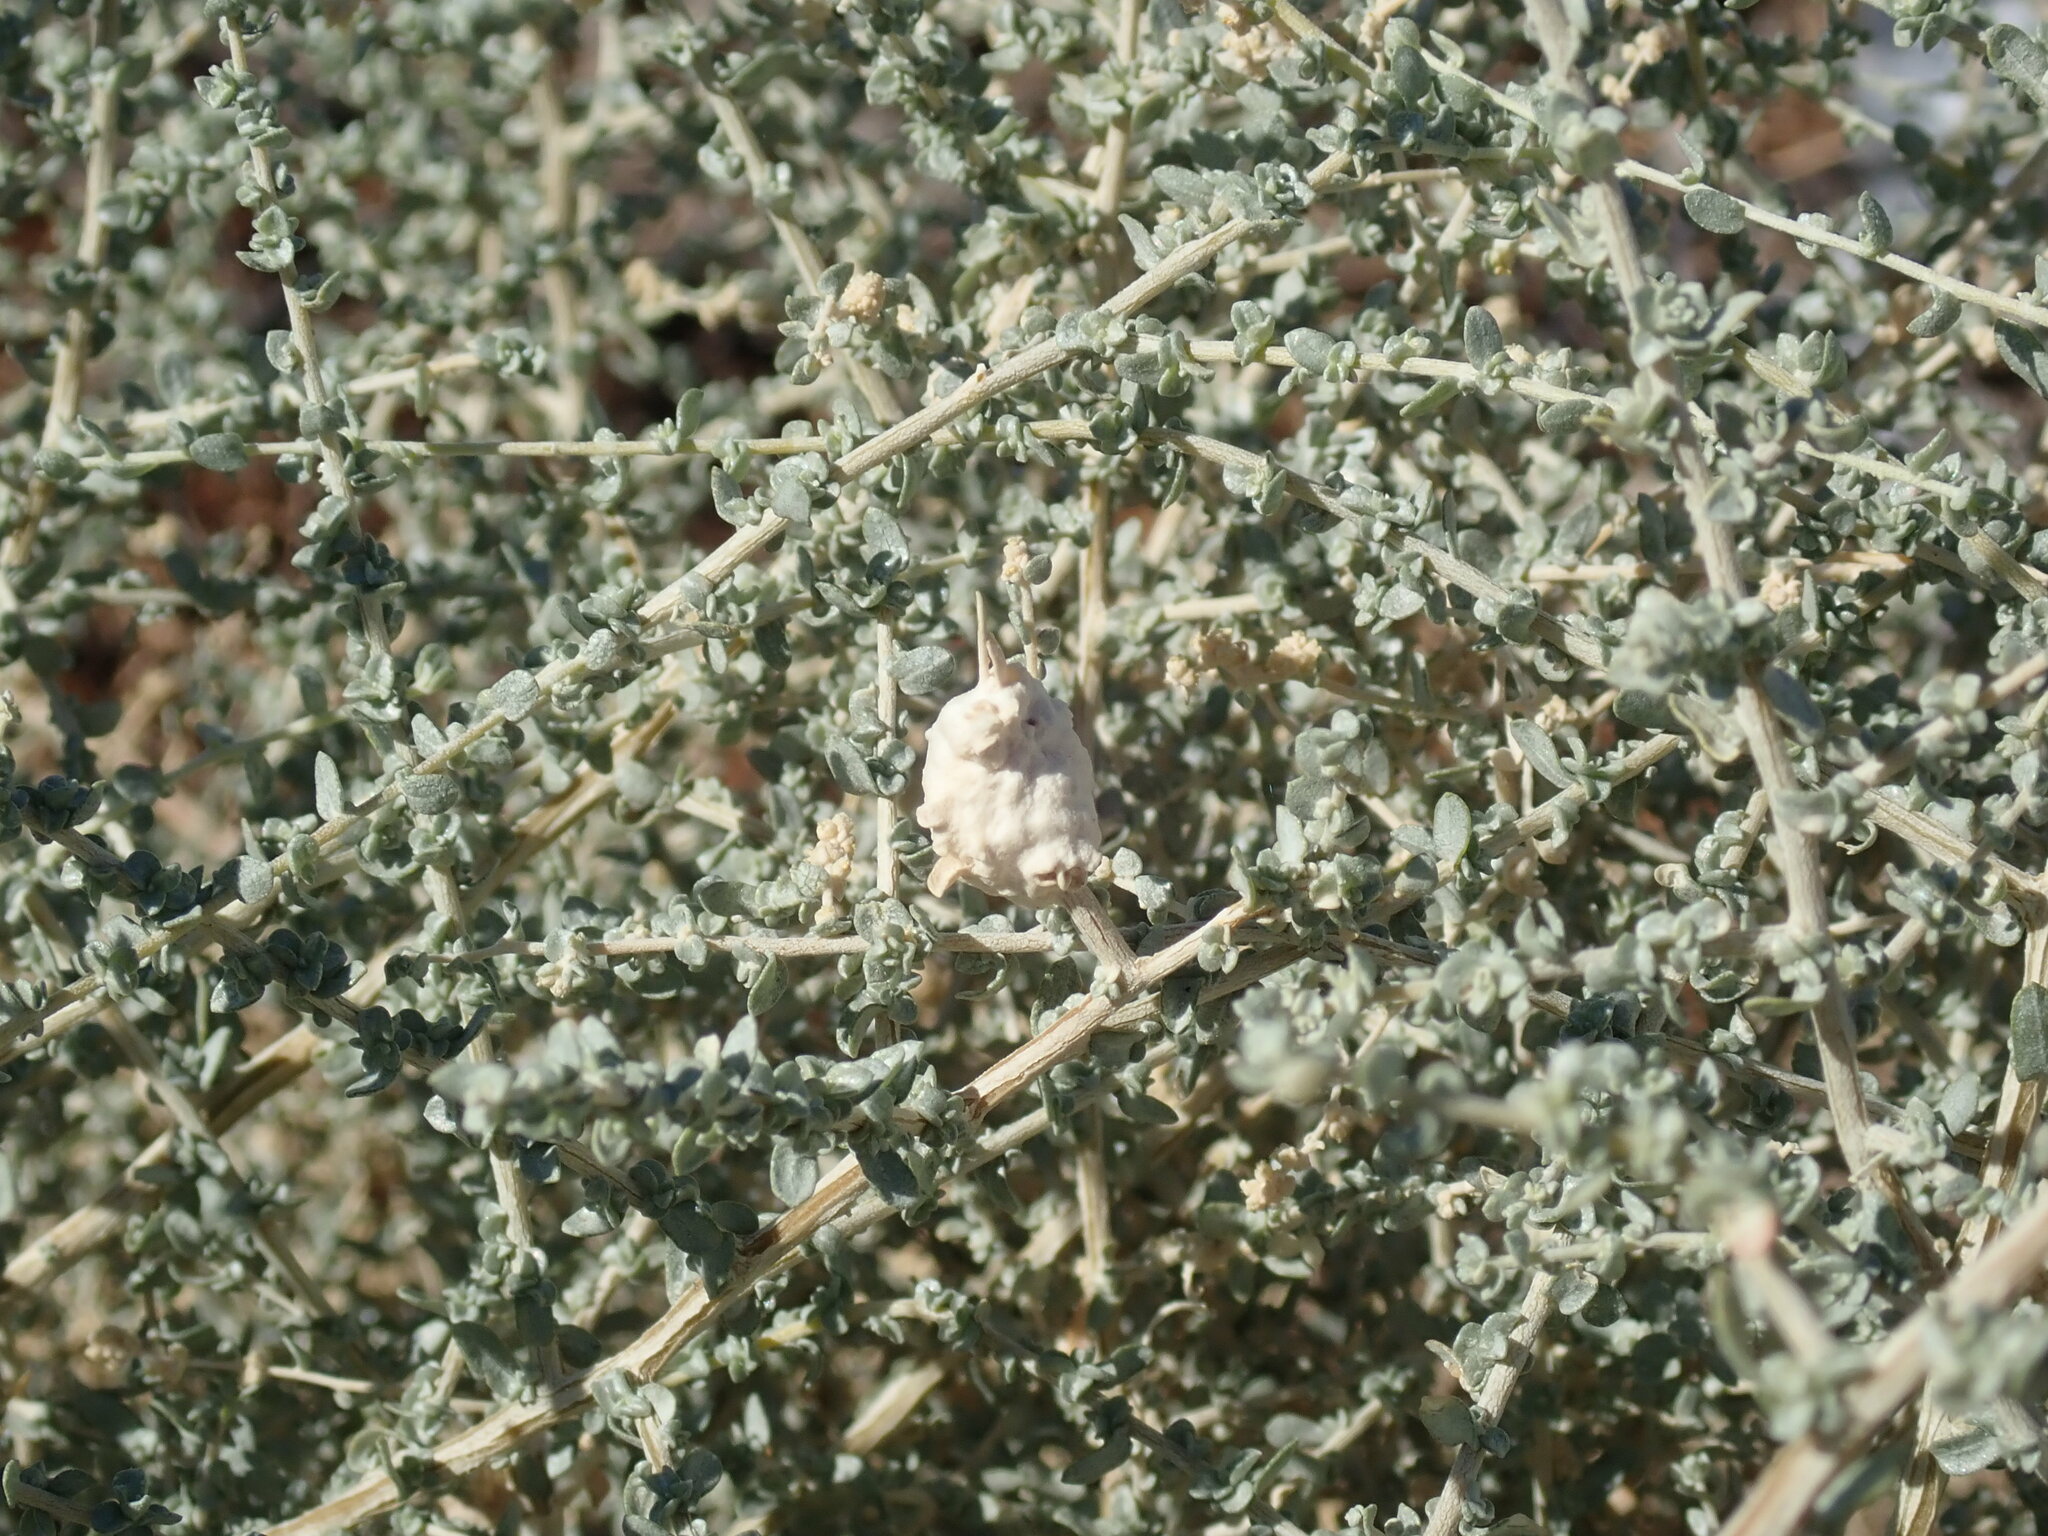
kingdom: Animalia
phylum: Arthropoda
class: Insecta
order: Diptera
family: Cecidomyiidae
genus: Asphondylia
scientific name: Asphondylia floccosa
